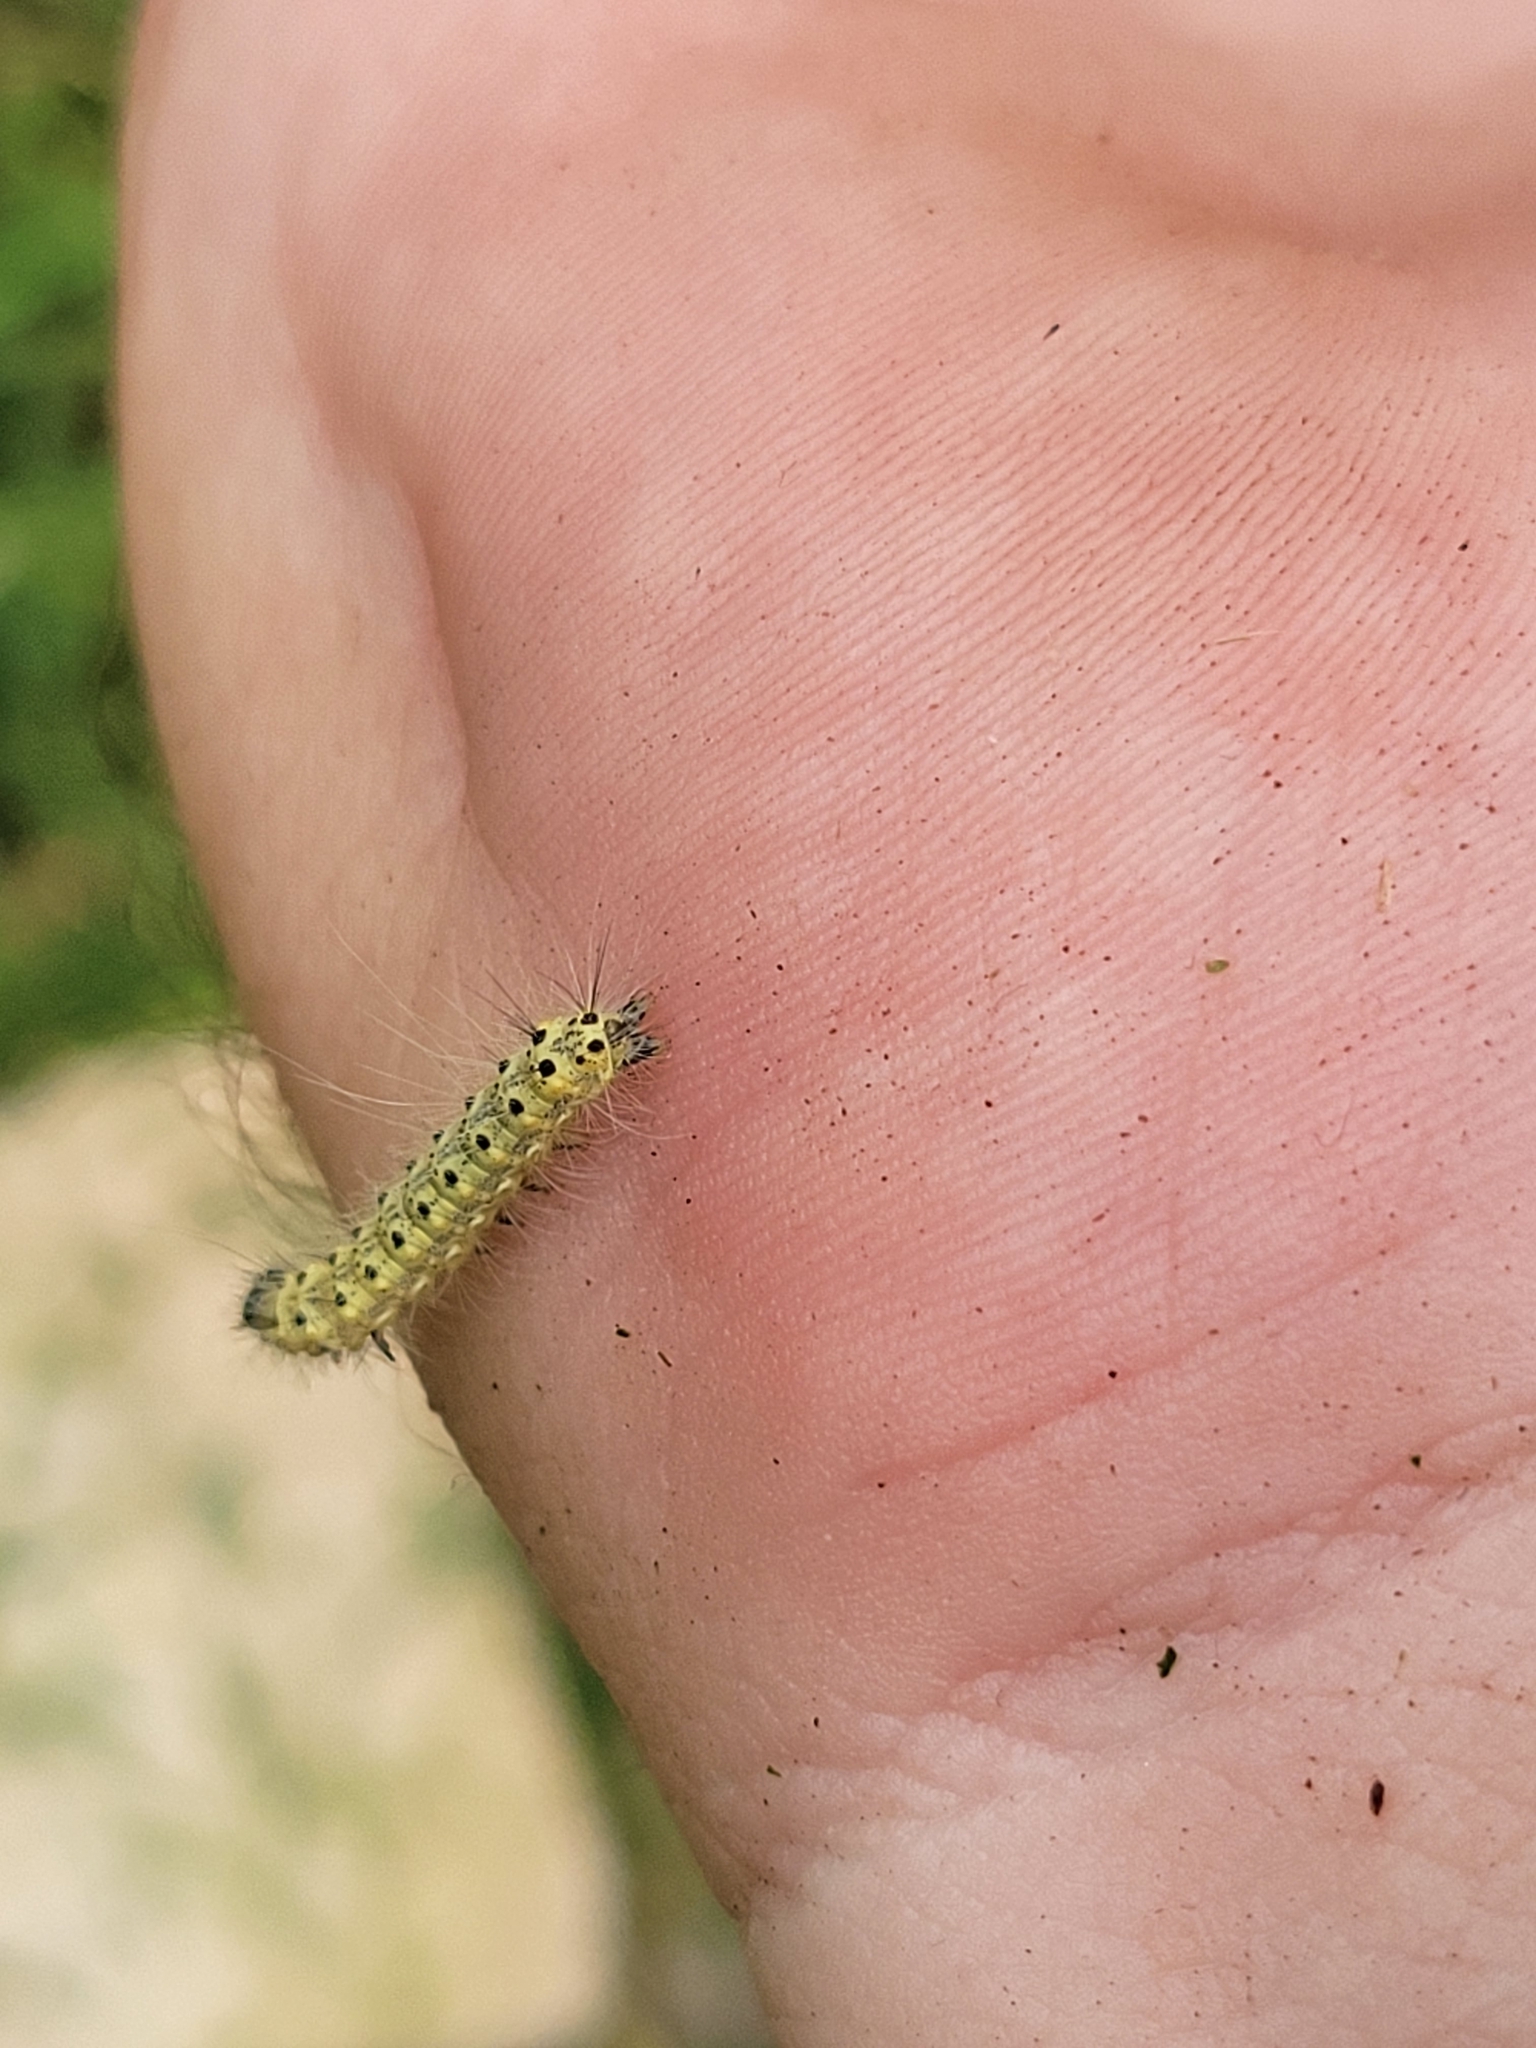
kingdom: Animalia
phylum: Arthropoda
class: Insecta
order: Lepidoptera
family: Erebidae
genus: Hyphantria
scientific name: Hyphantria cunea
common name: American white moth
